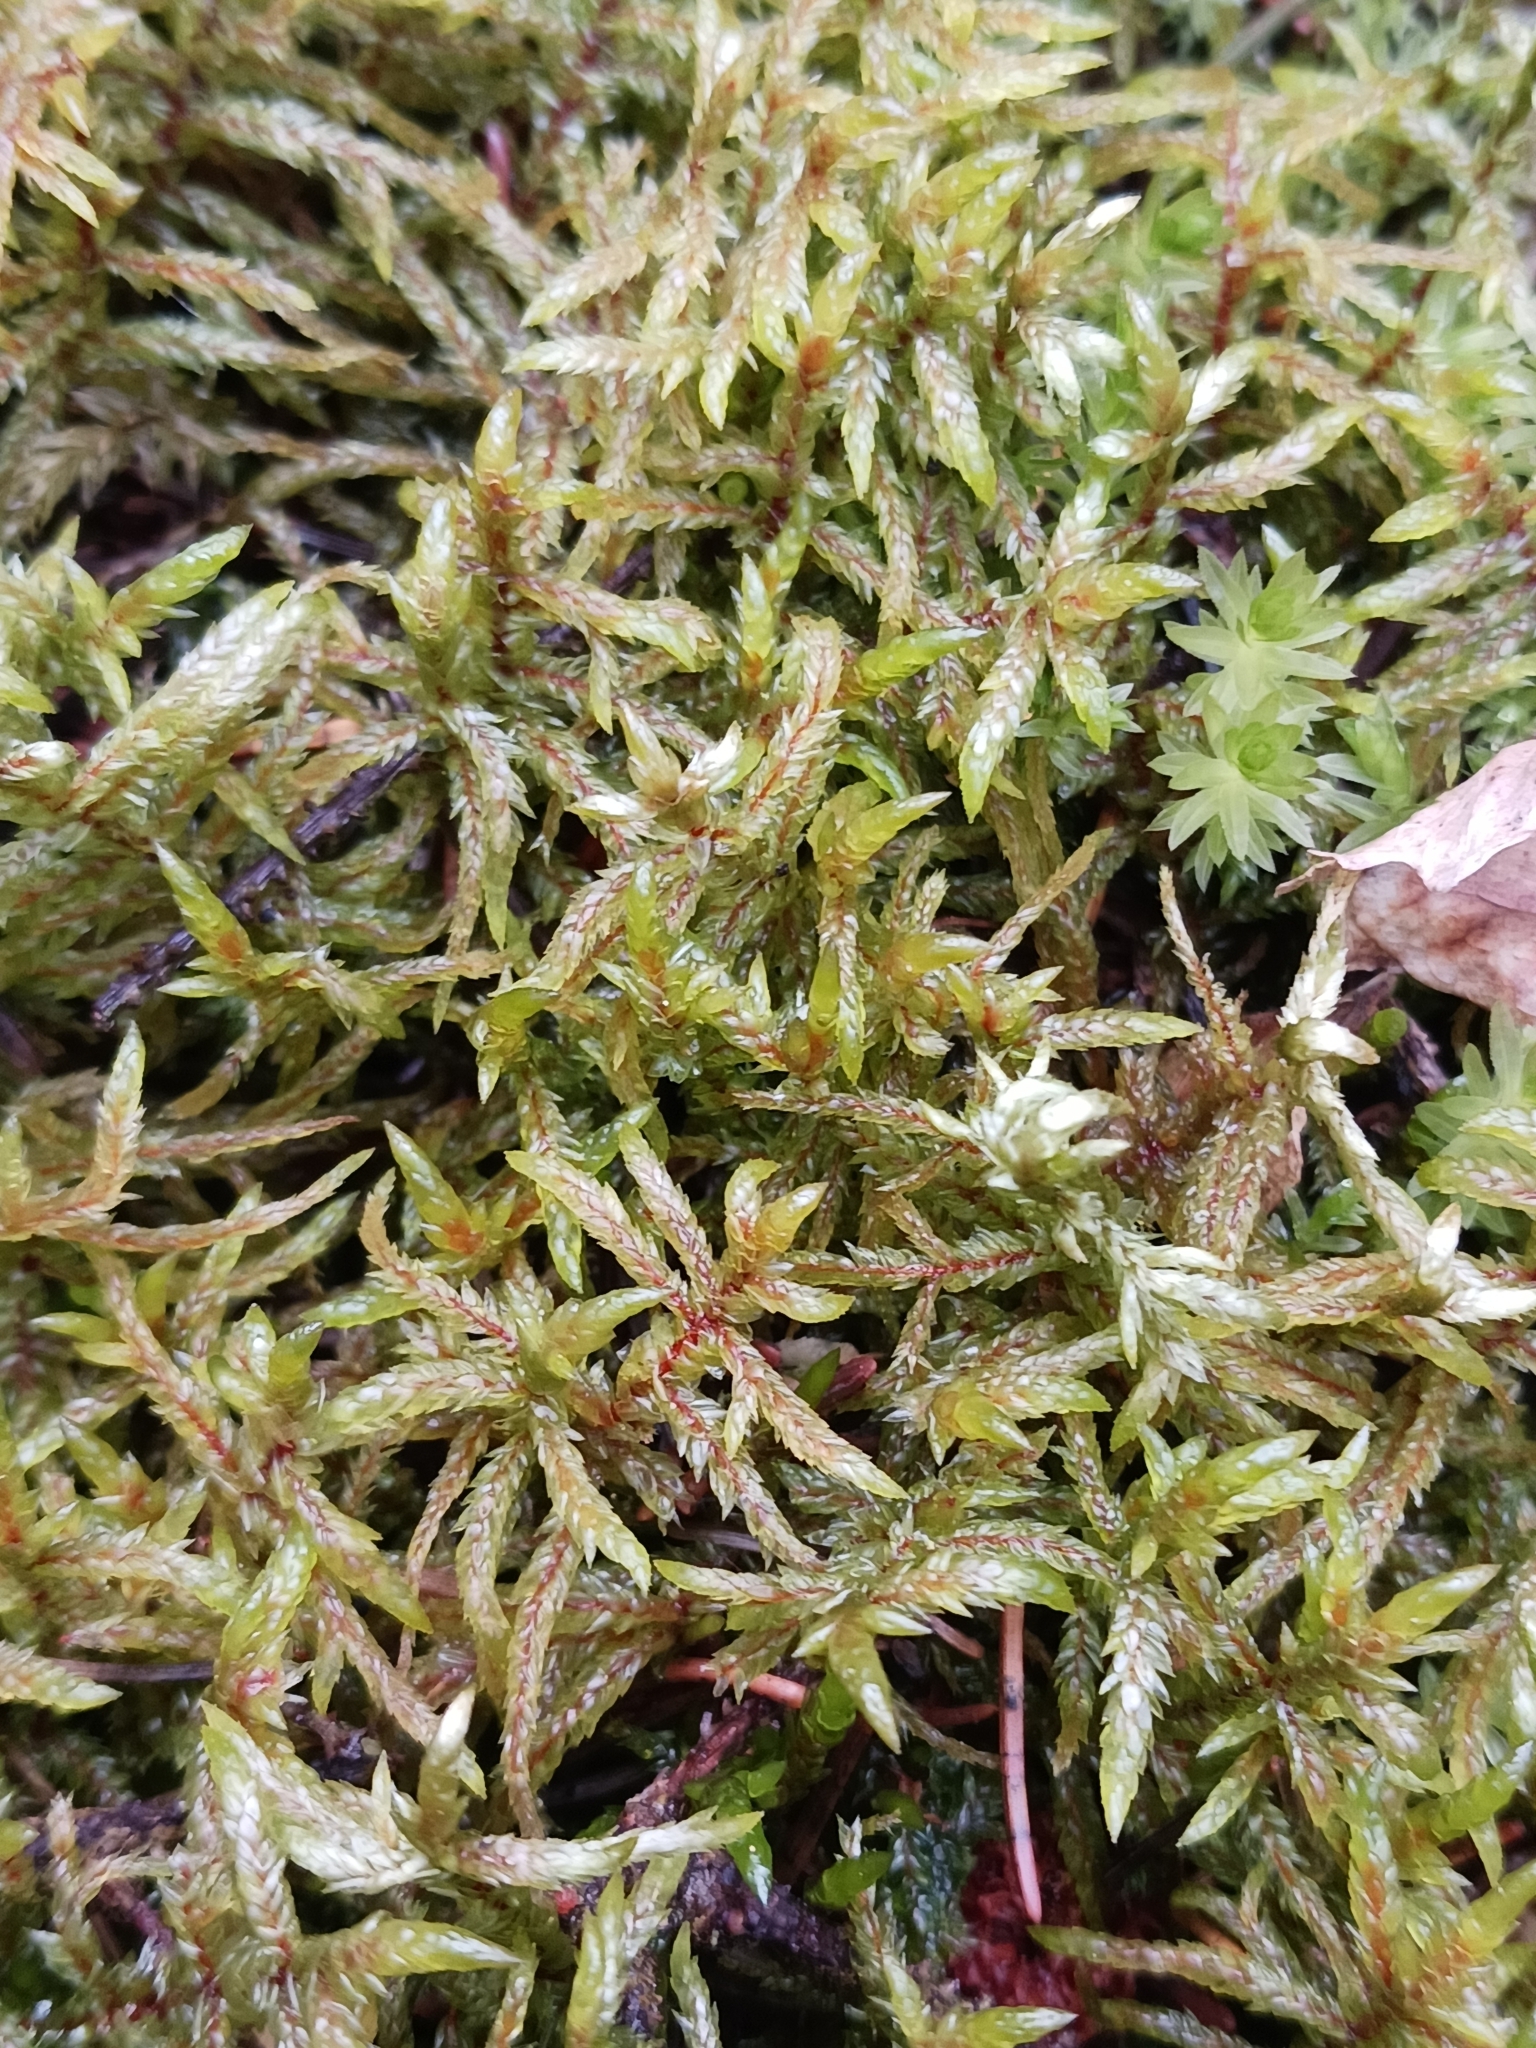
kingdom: Plantae
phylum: Bryophyta
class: Bryopsida
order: Hypnales
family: Hylocomiaceae
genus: Pleurozium
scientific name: Pleurozium schreberi
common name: Red-stemmed feather moss
